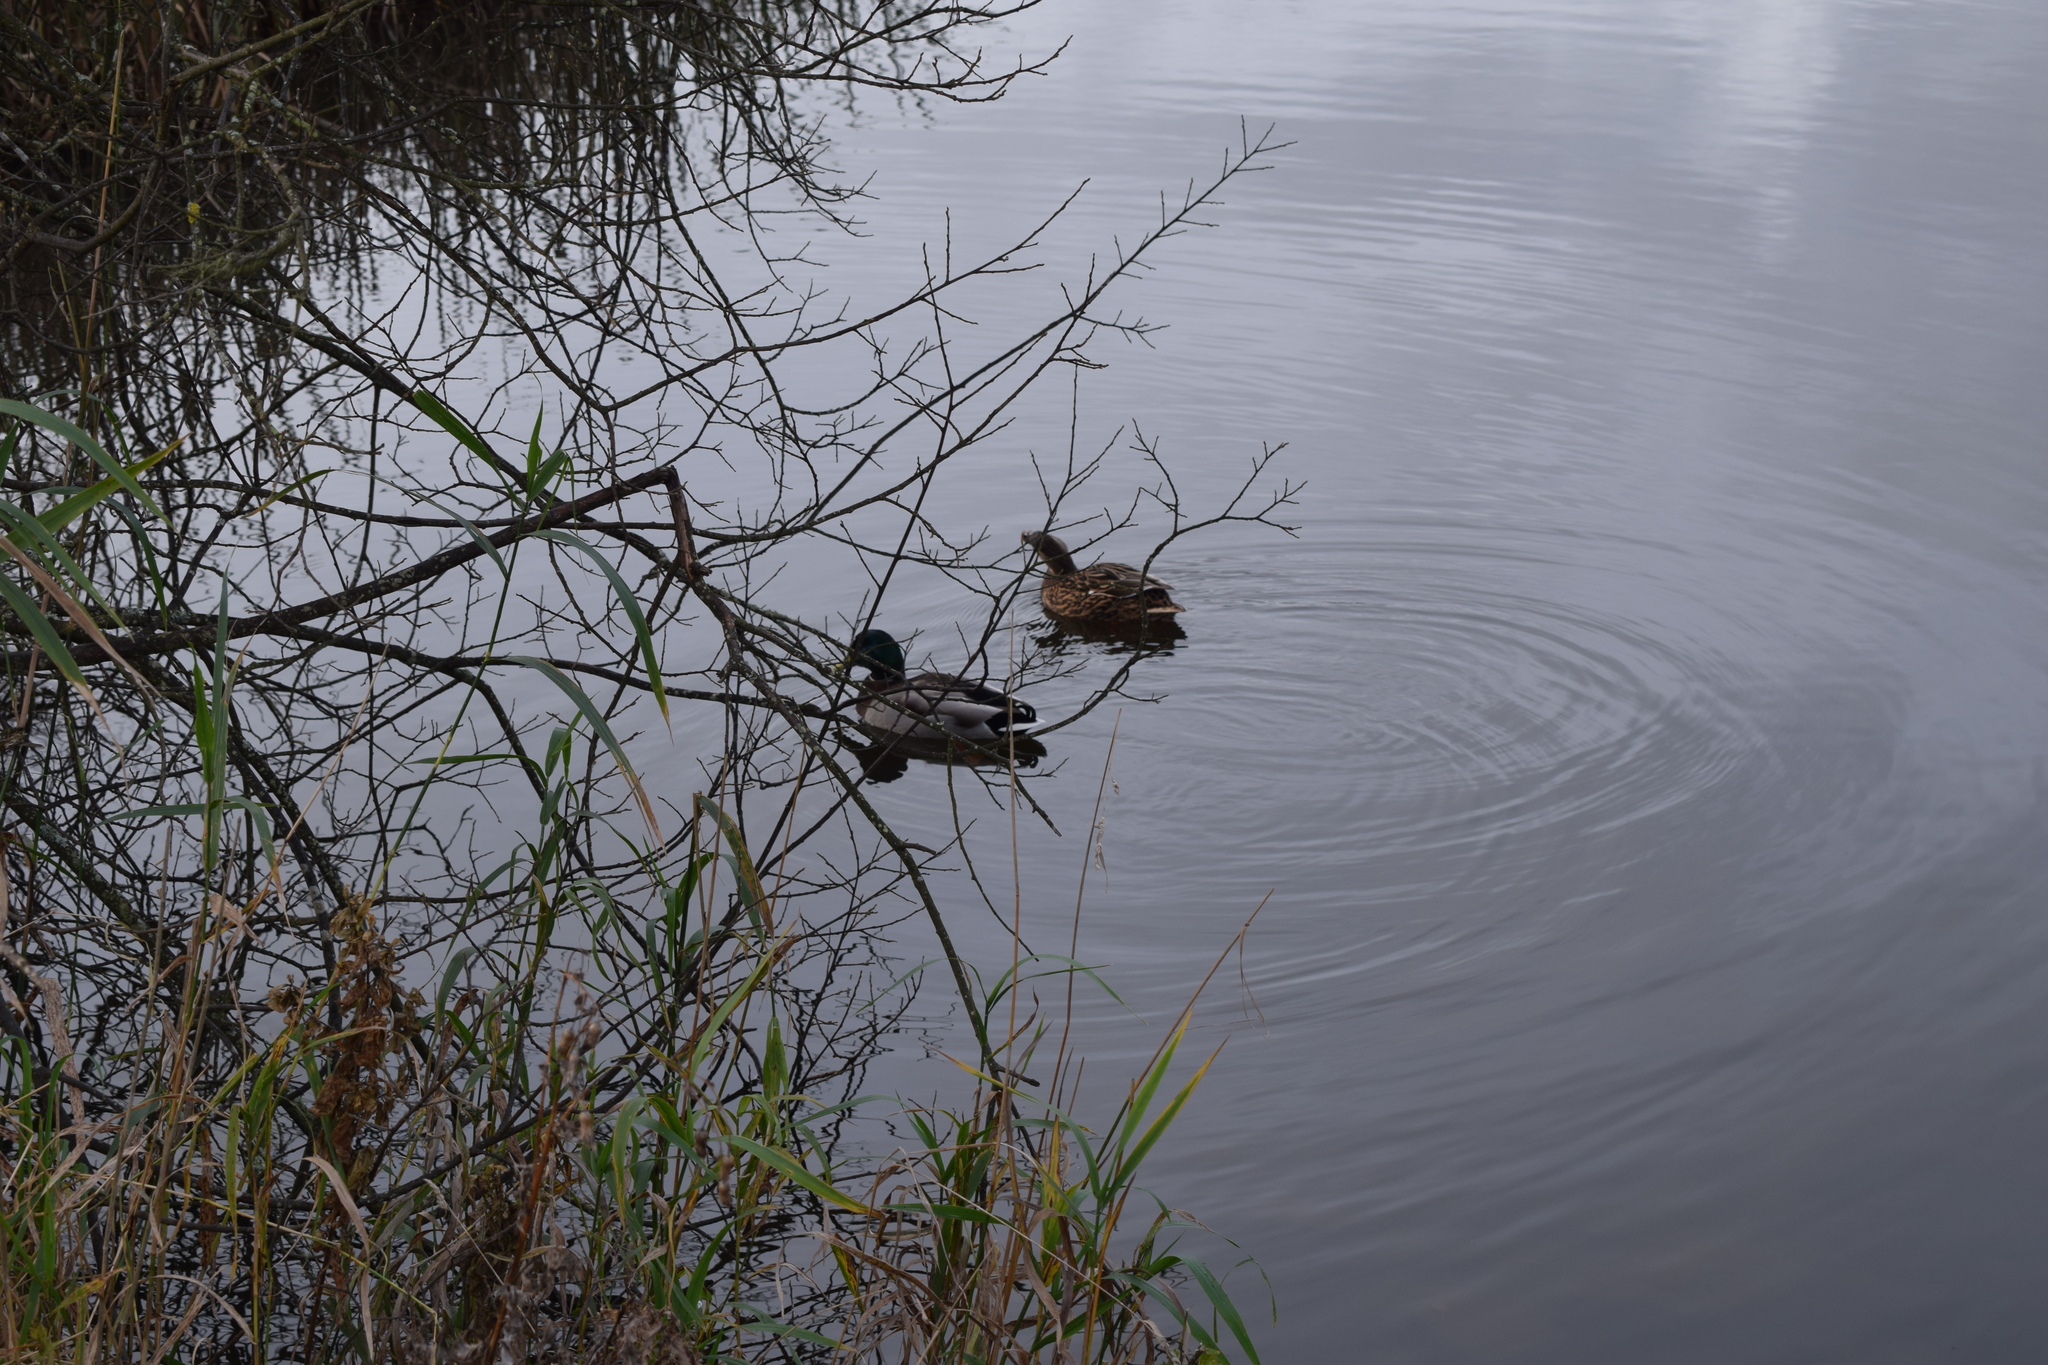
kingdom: Animalia
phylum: Chordata
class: Aves
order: Anseriformes
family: Anatidae
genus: Anas
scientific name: Anas platyrhynchos
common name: Mallard
